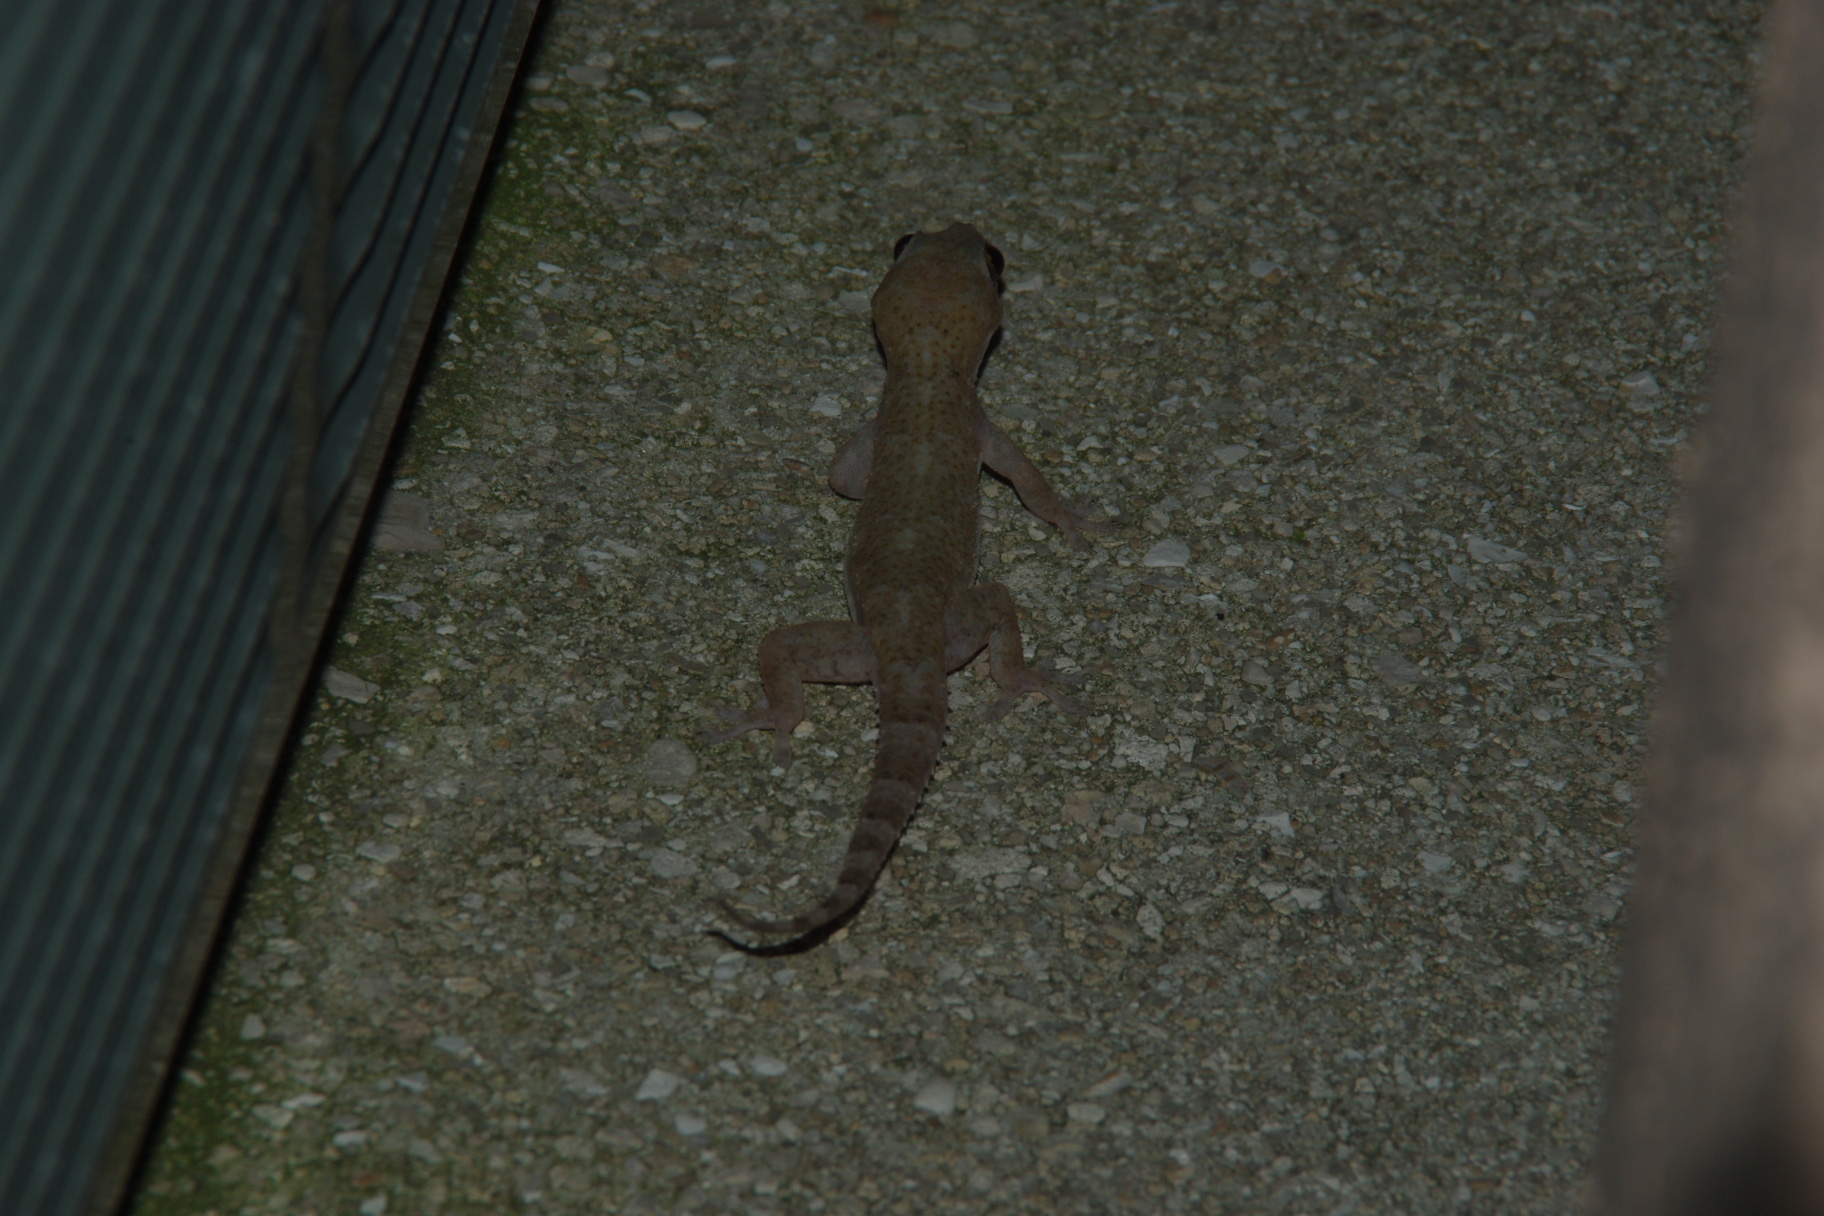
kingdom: Animalia
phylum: Chordata
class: Squamata
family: Gekkonidae
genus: Hemidactylus
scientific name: Hemidactylus mabouia
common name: House gecko
